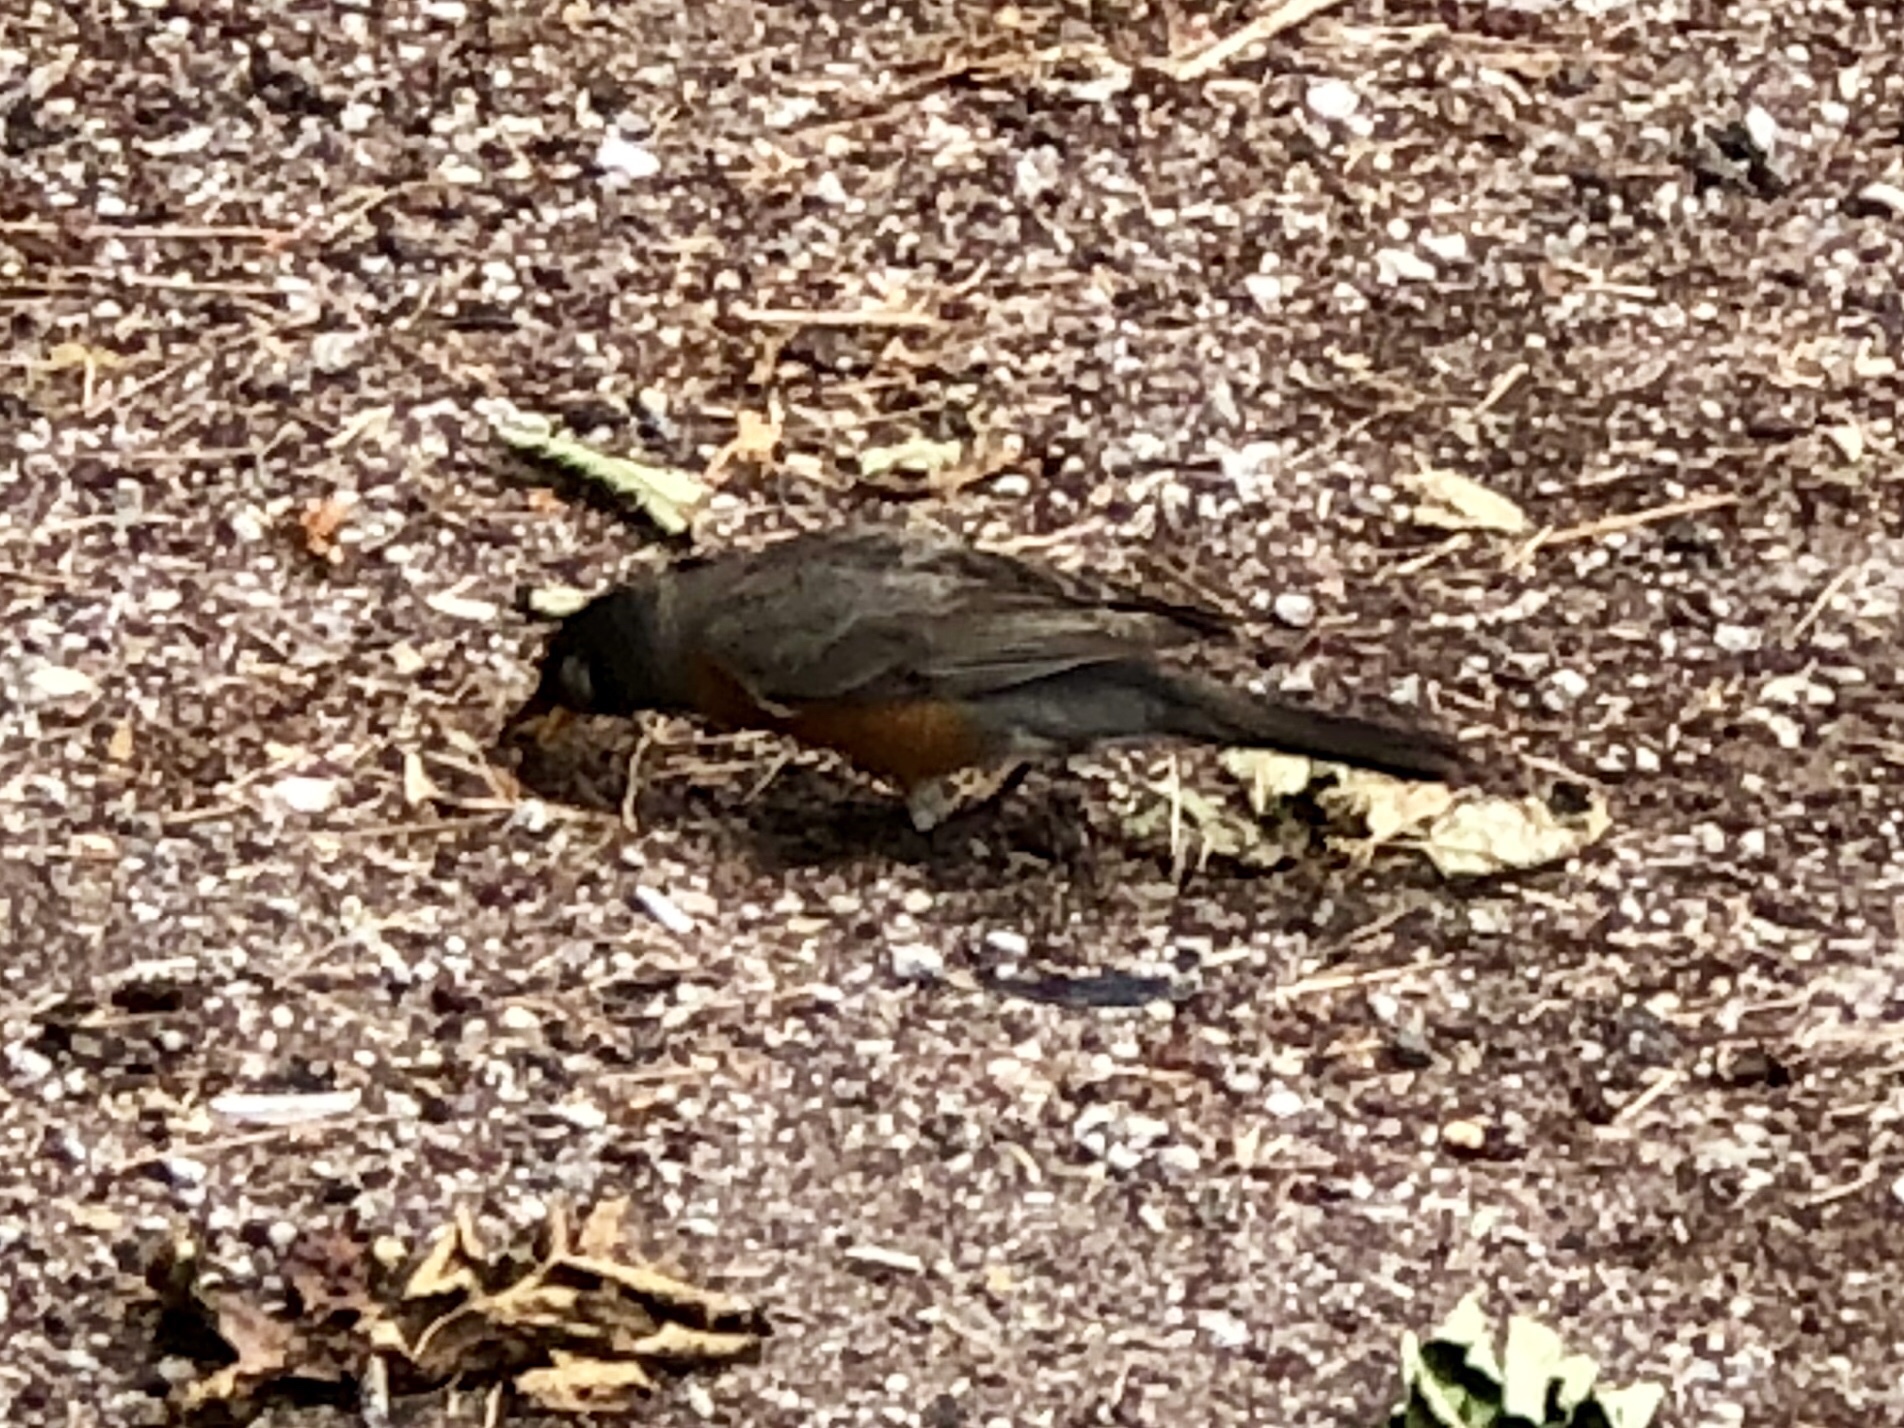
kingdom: Animalia
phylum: Chordata
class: Aves
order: Passeriformes
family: Turdidae
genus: Turdus
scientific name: Turdus migratorius
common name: American robin
